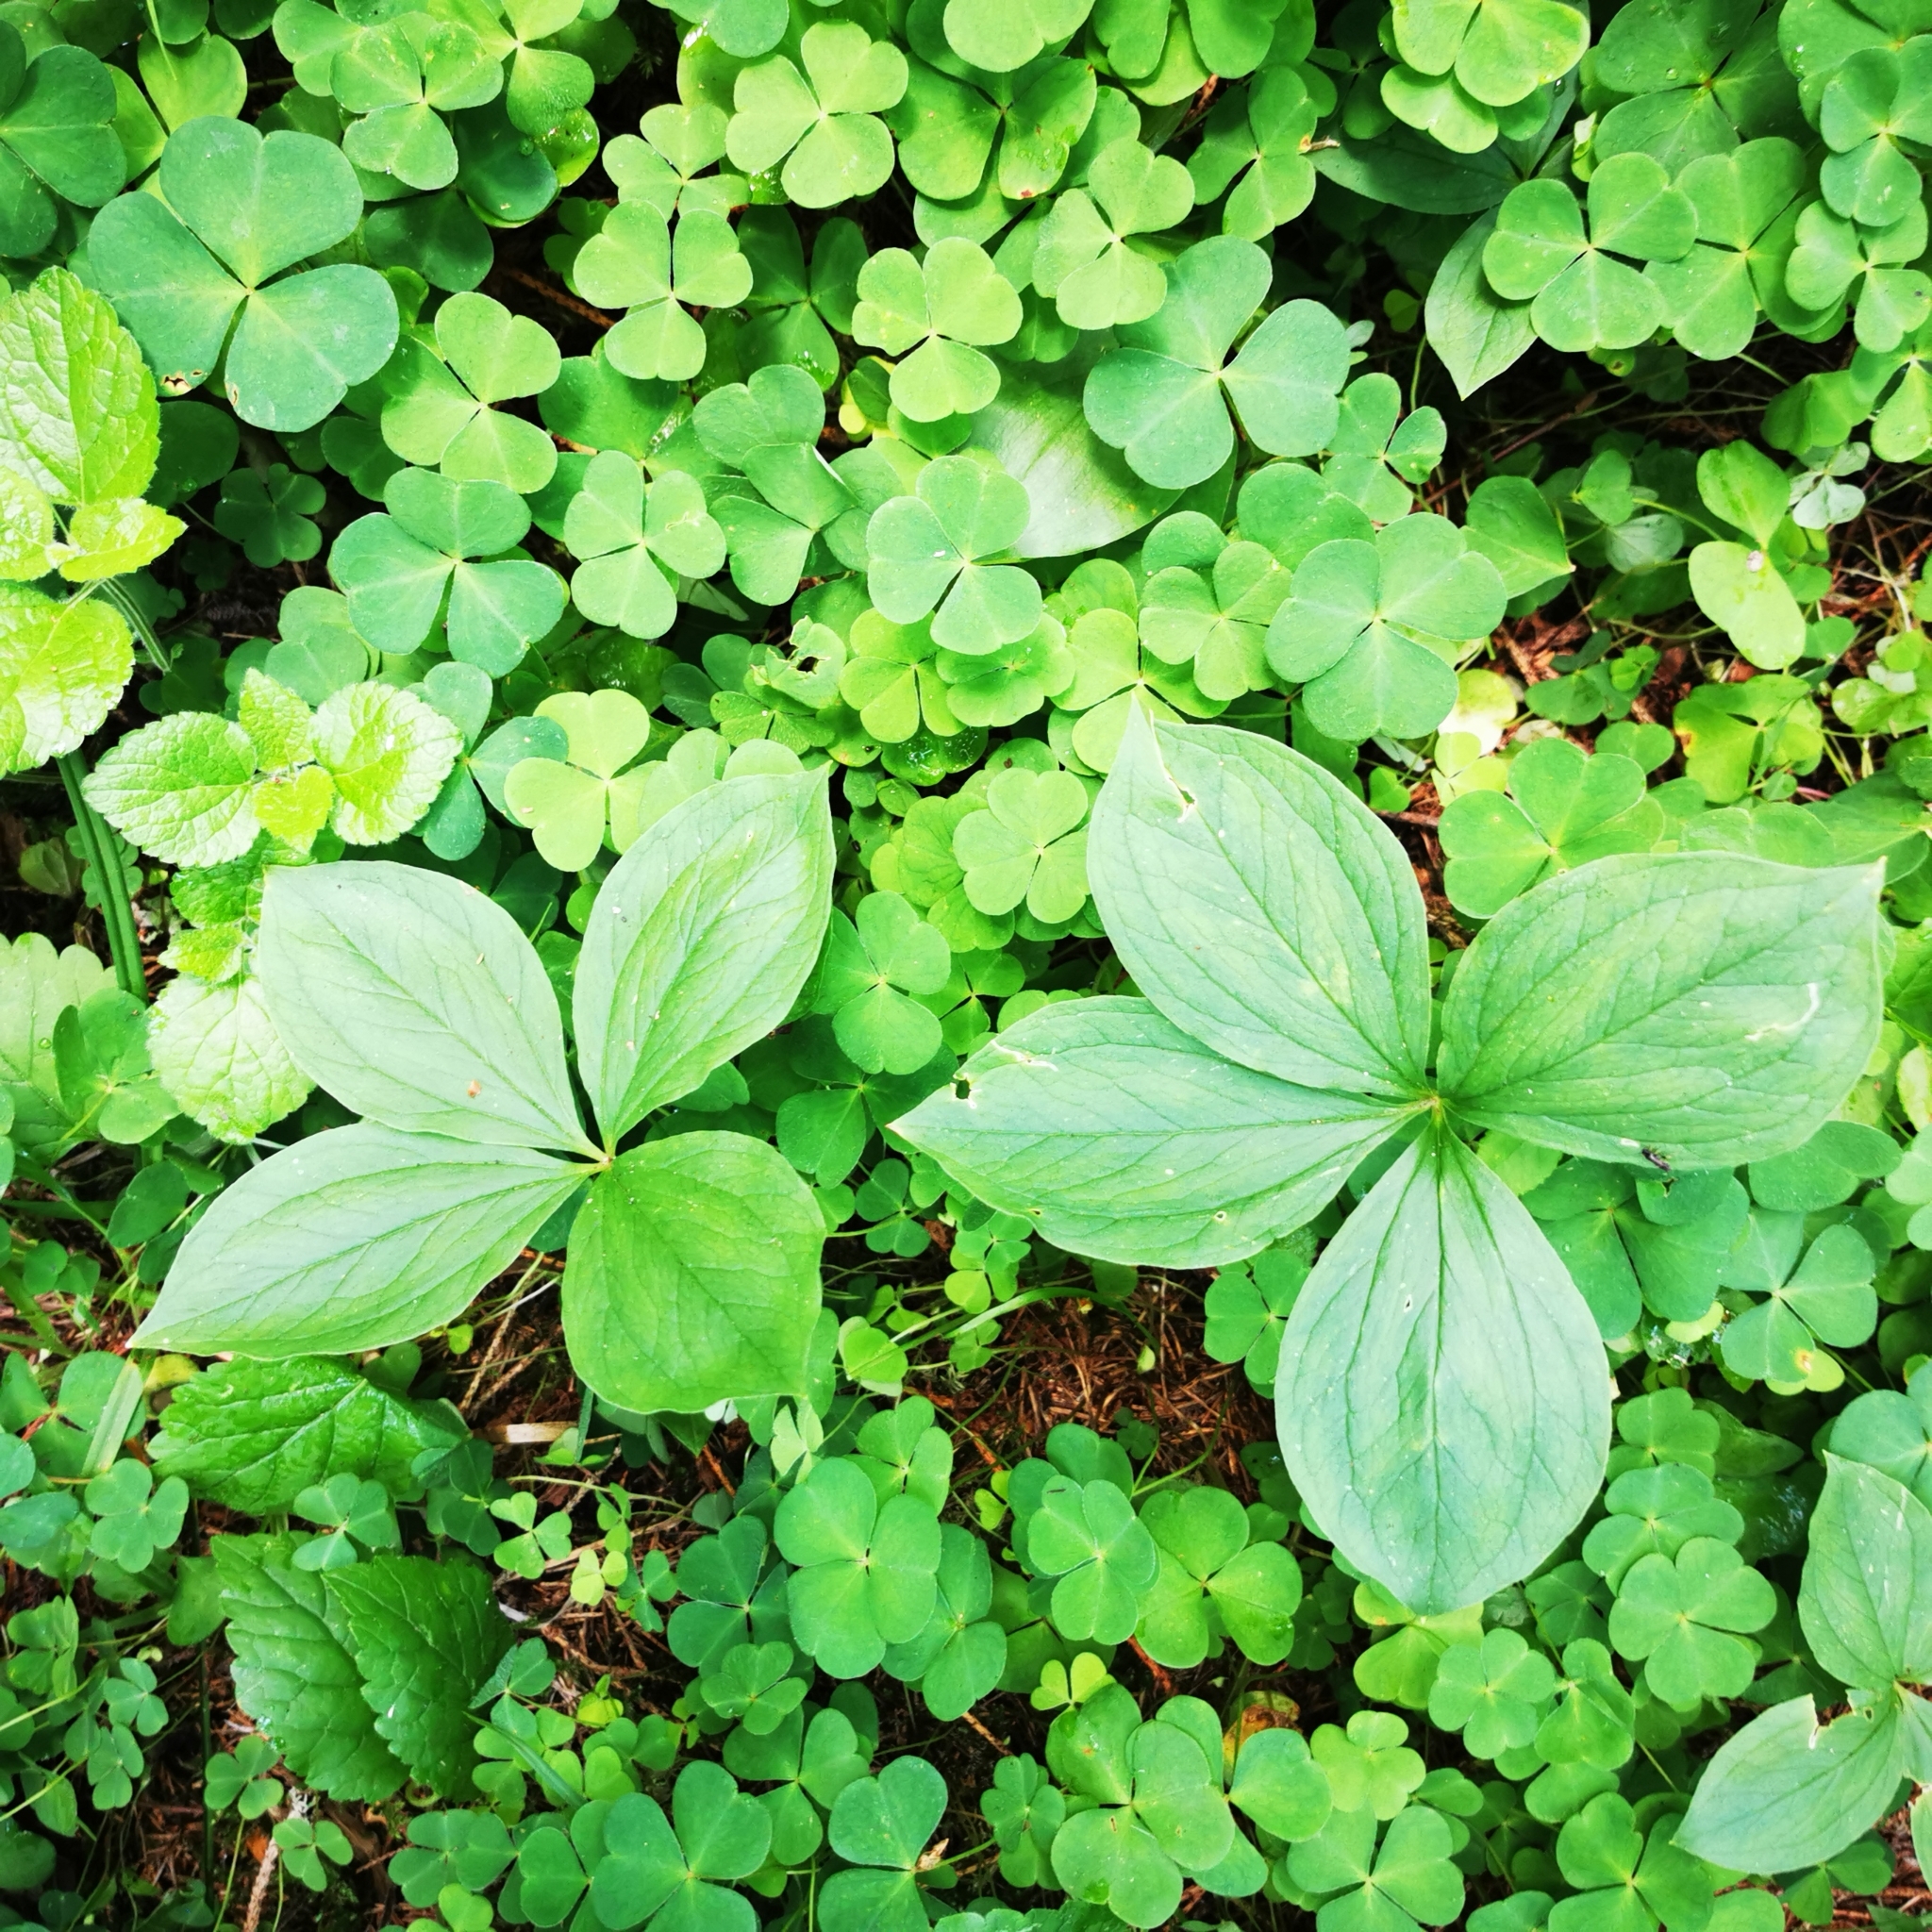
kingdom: Plantae
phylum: Tracheophyta
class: Liliopsida
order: Liliales
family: Melanthiaceae
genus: Paris
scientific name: Paris quadrifolia
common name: Herb-paris
